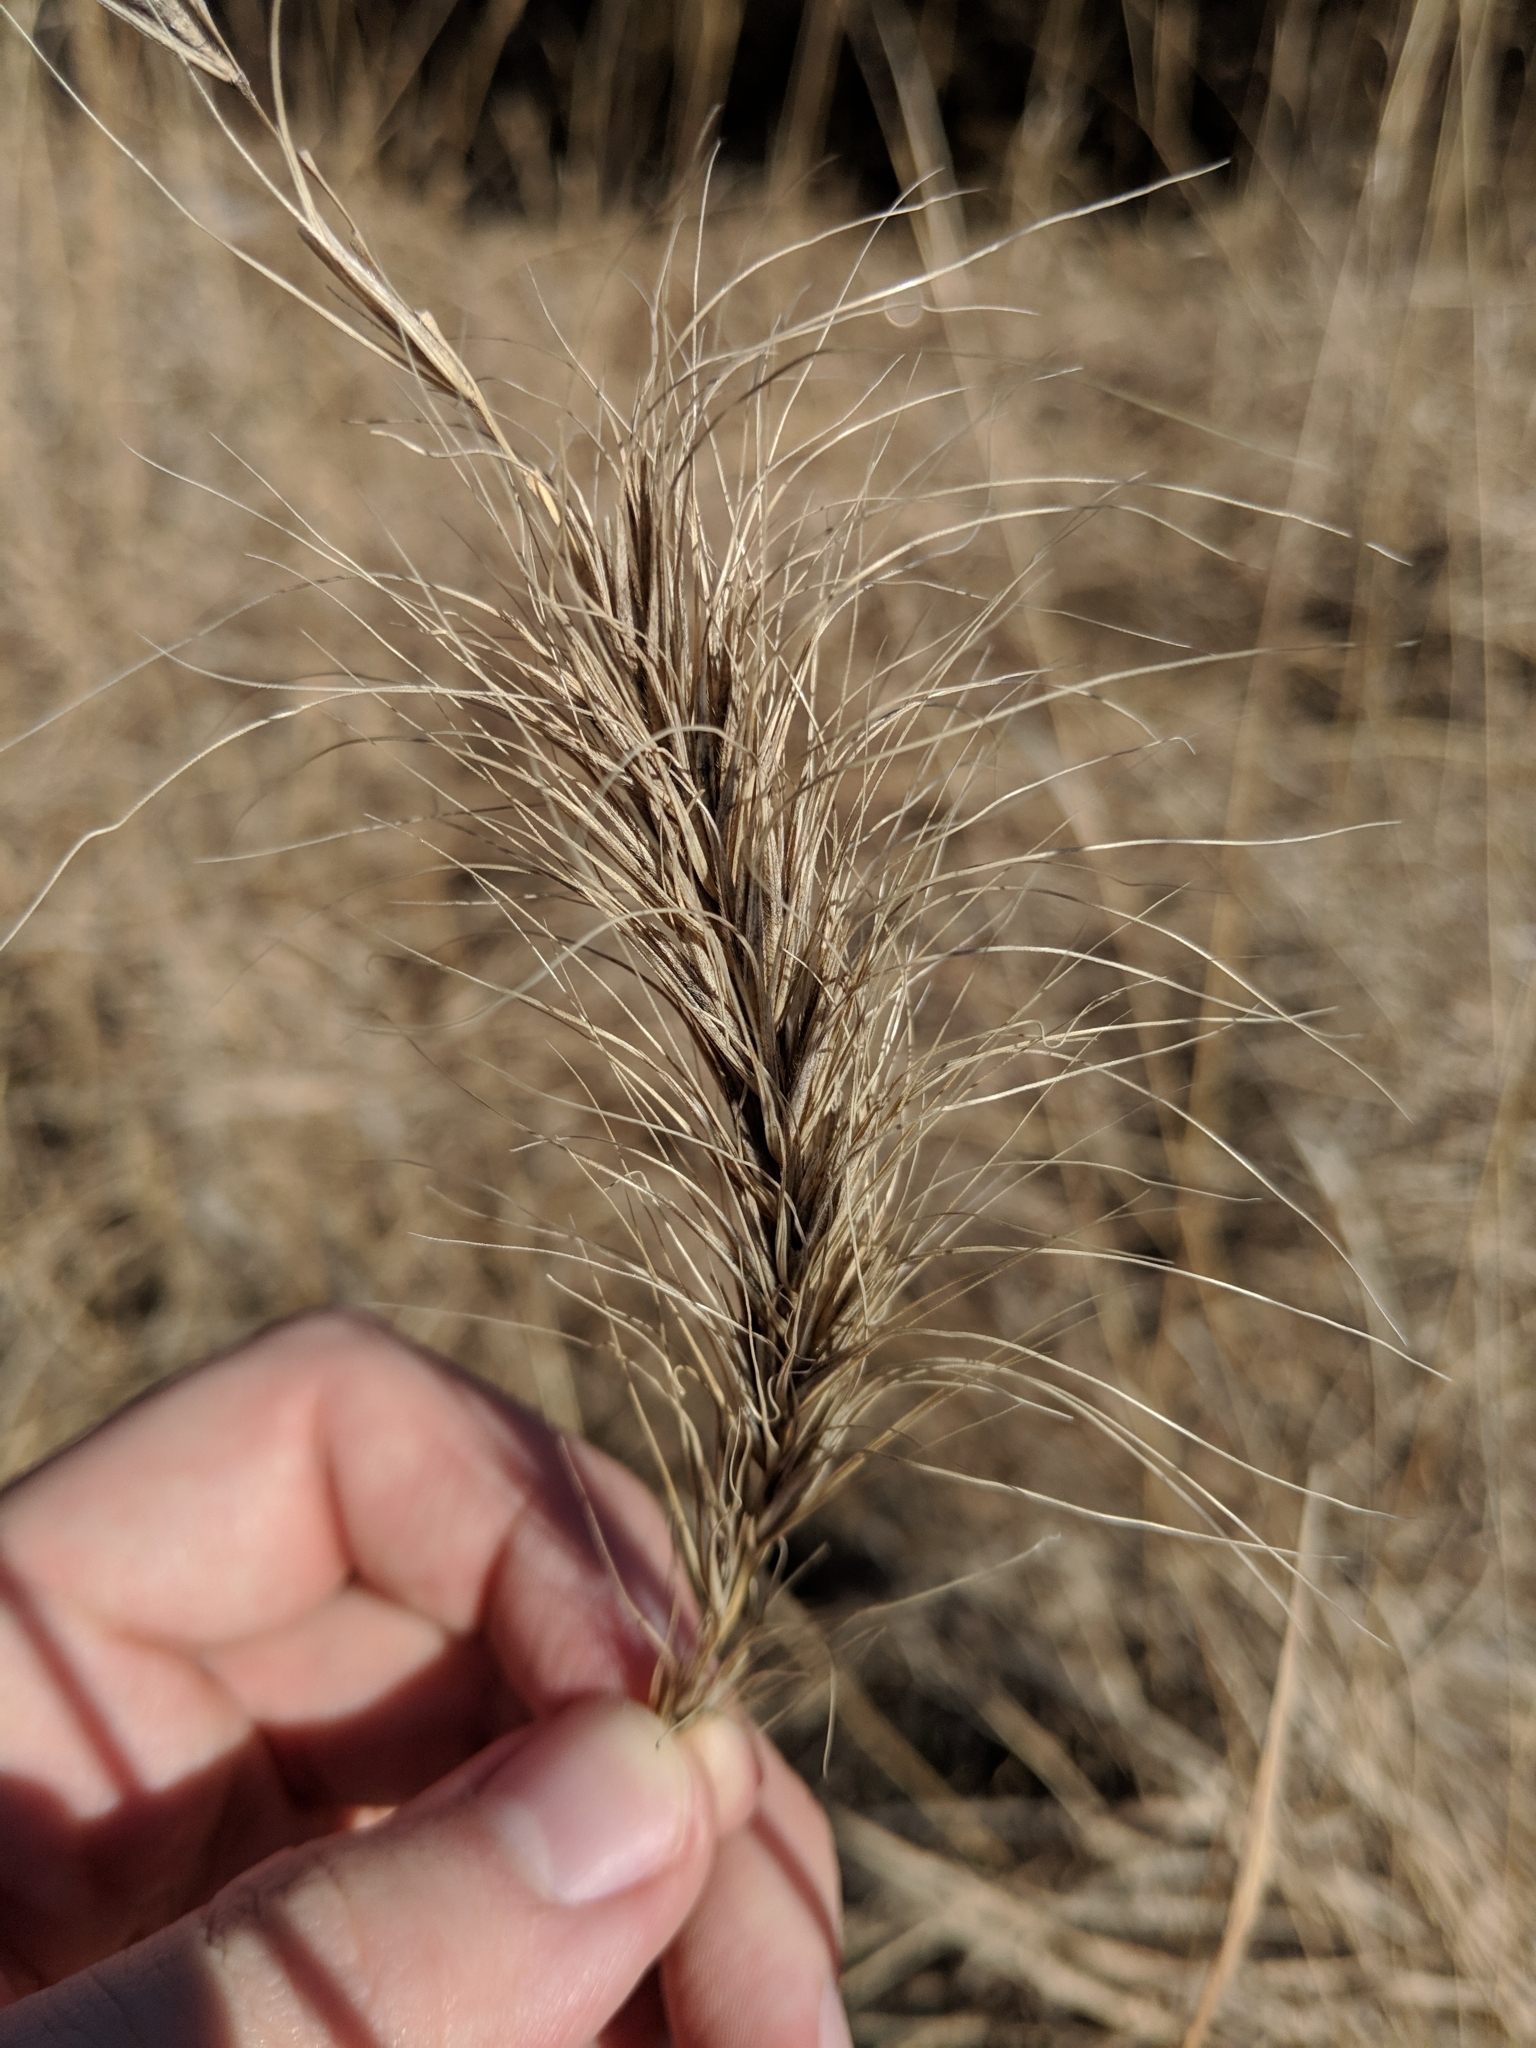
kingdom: Plantae
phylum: Tracheophyta
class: Liliopsida
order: Poales
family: Poaceae
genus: Elymus
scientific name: Elymus canadensis
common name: Canada wild rye
